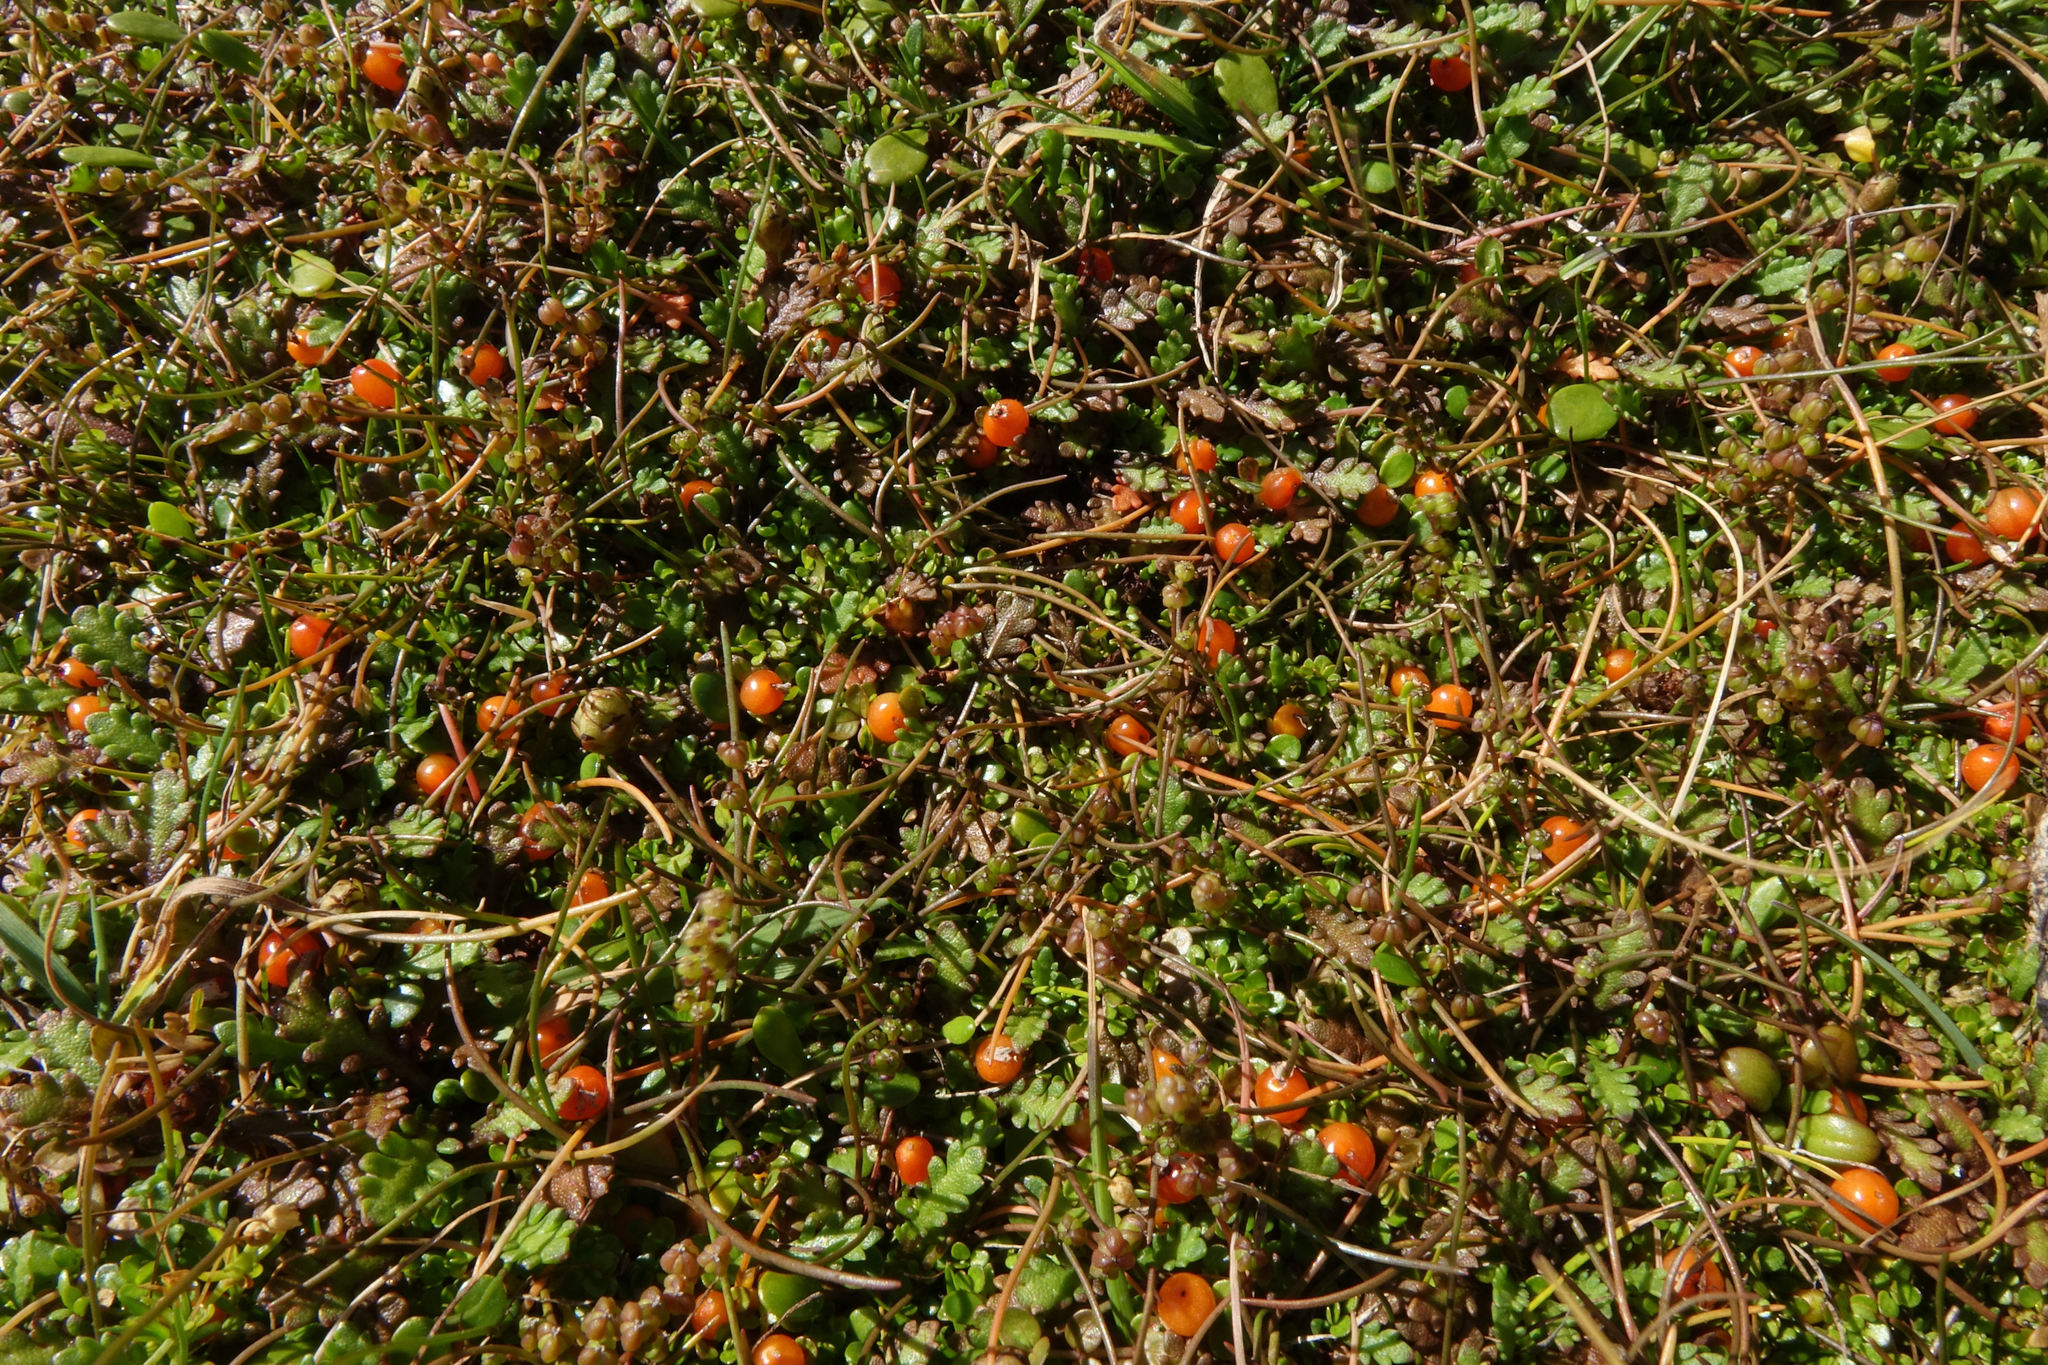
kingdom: Plantae
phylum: Tracheophyta
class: Magnoliopsida
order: Gentianales
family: Rubiaceae
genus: Nertera
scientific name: Nertera balfouriana
